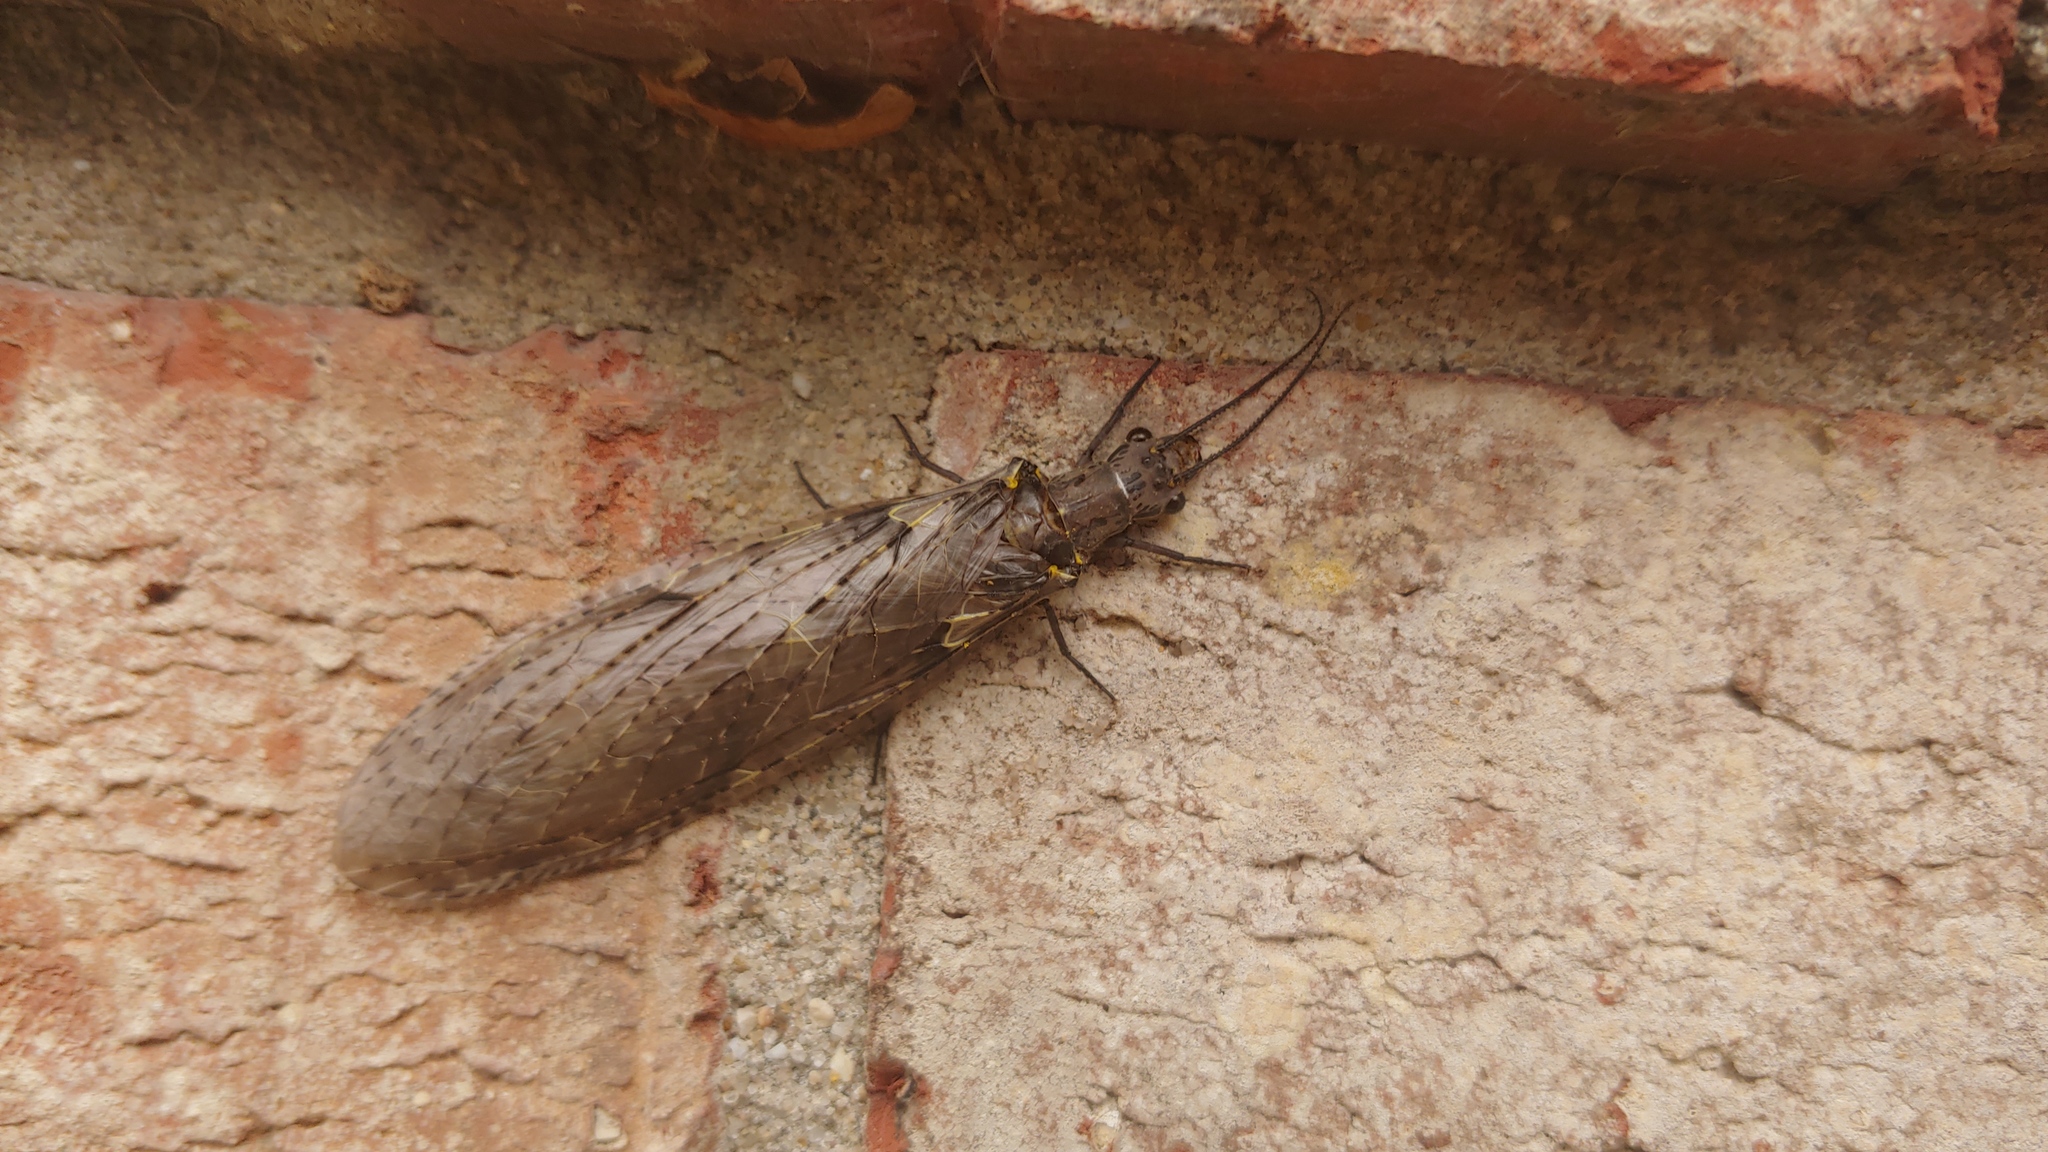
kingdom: Animalia
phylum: Arthropoda
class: Insecta
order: Megaloptera
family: Corydalidae
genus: Chauliodes
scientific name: Chauliodes rastricornis
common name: Spring fishfly
